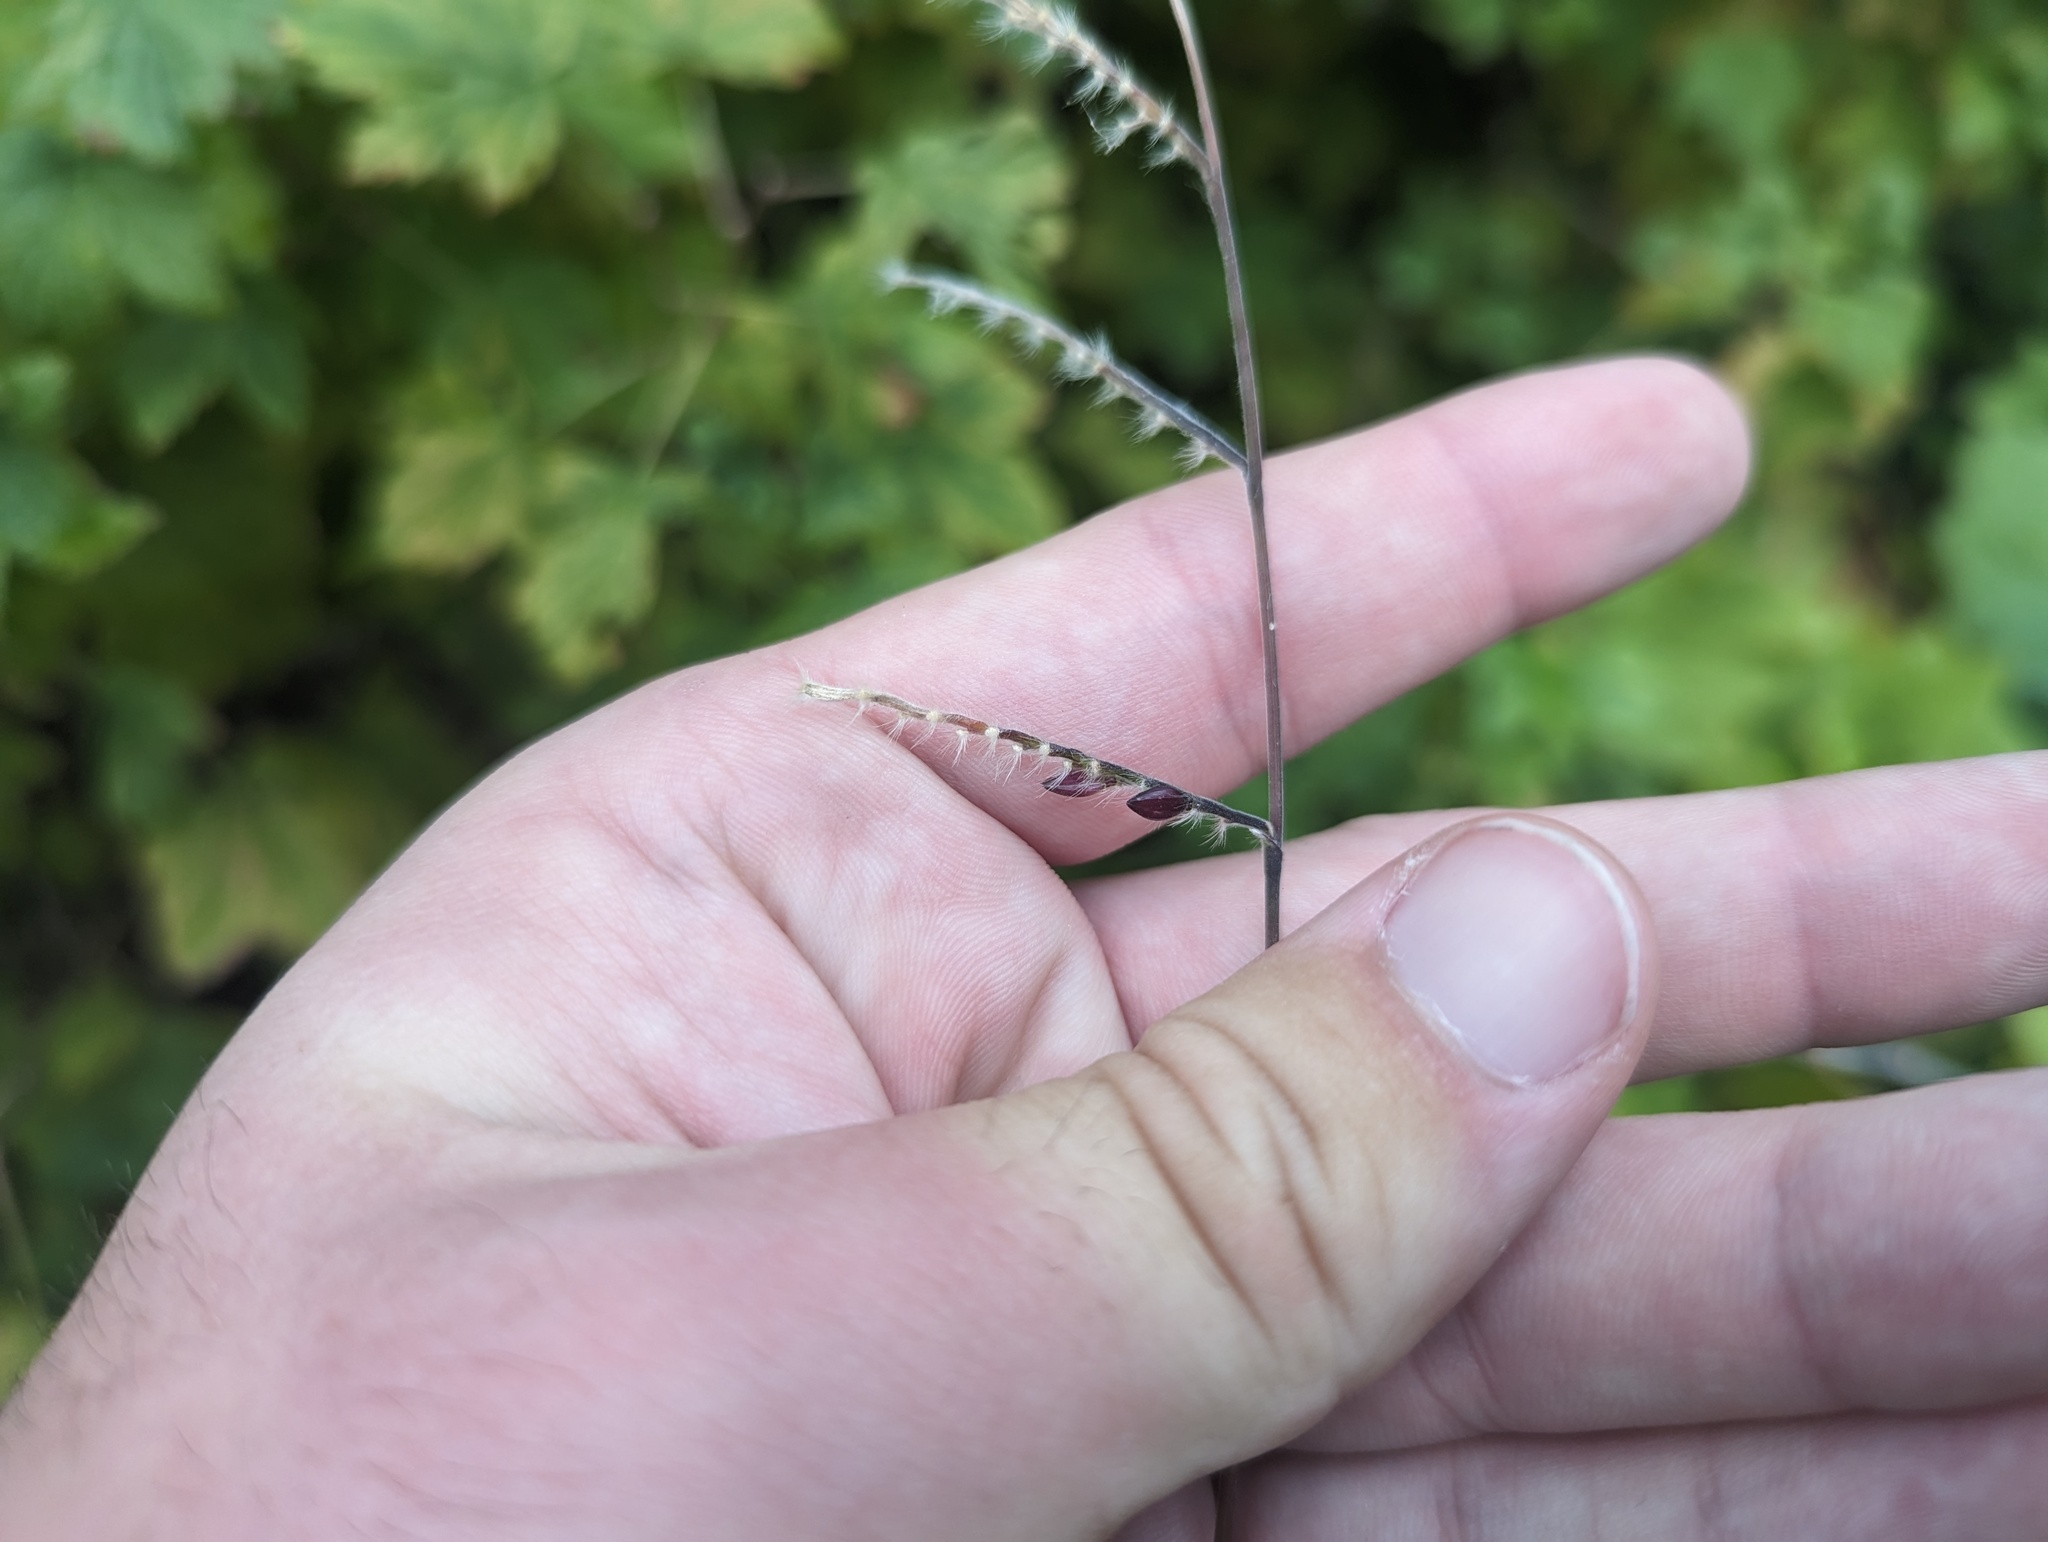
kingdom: Plantae
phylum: Tracheophyta
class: Liliopsida
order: Poales
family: Poaceae
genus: Eriochloa
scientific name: Eriochloa villosa
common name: Hairy cupgrass
